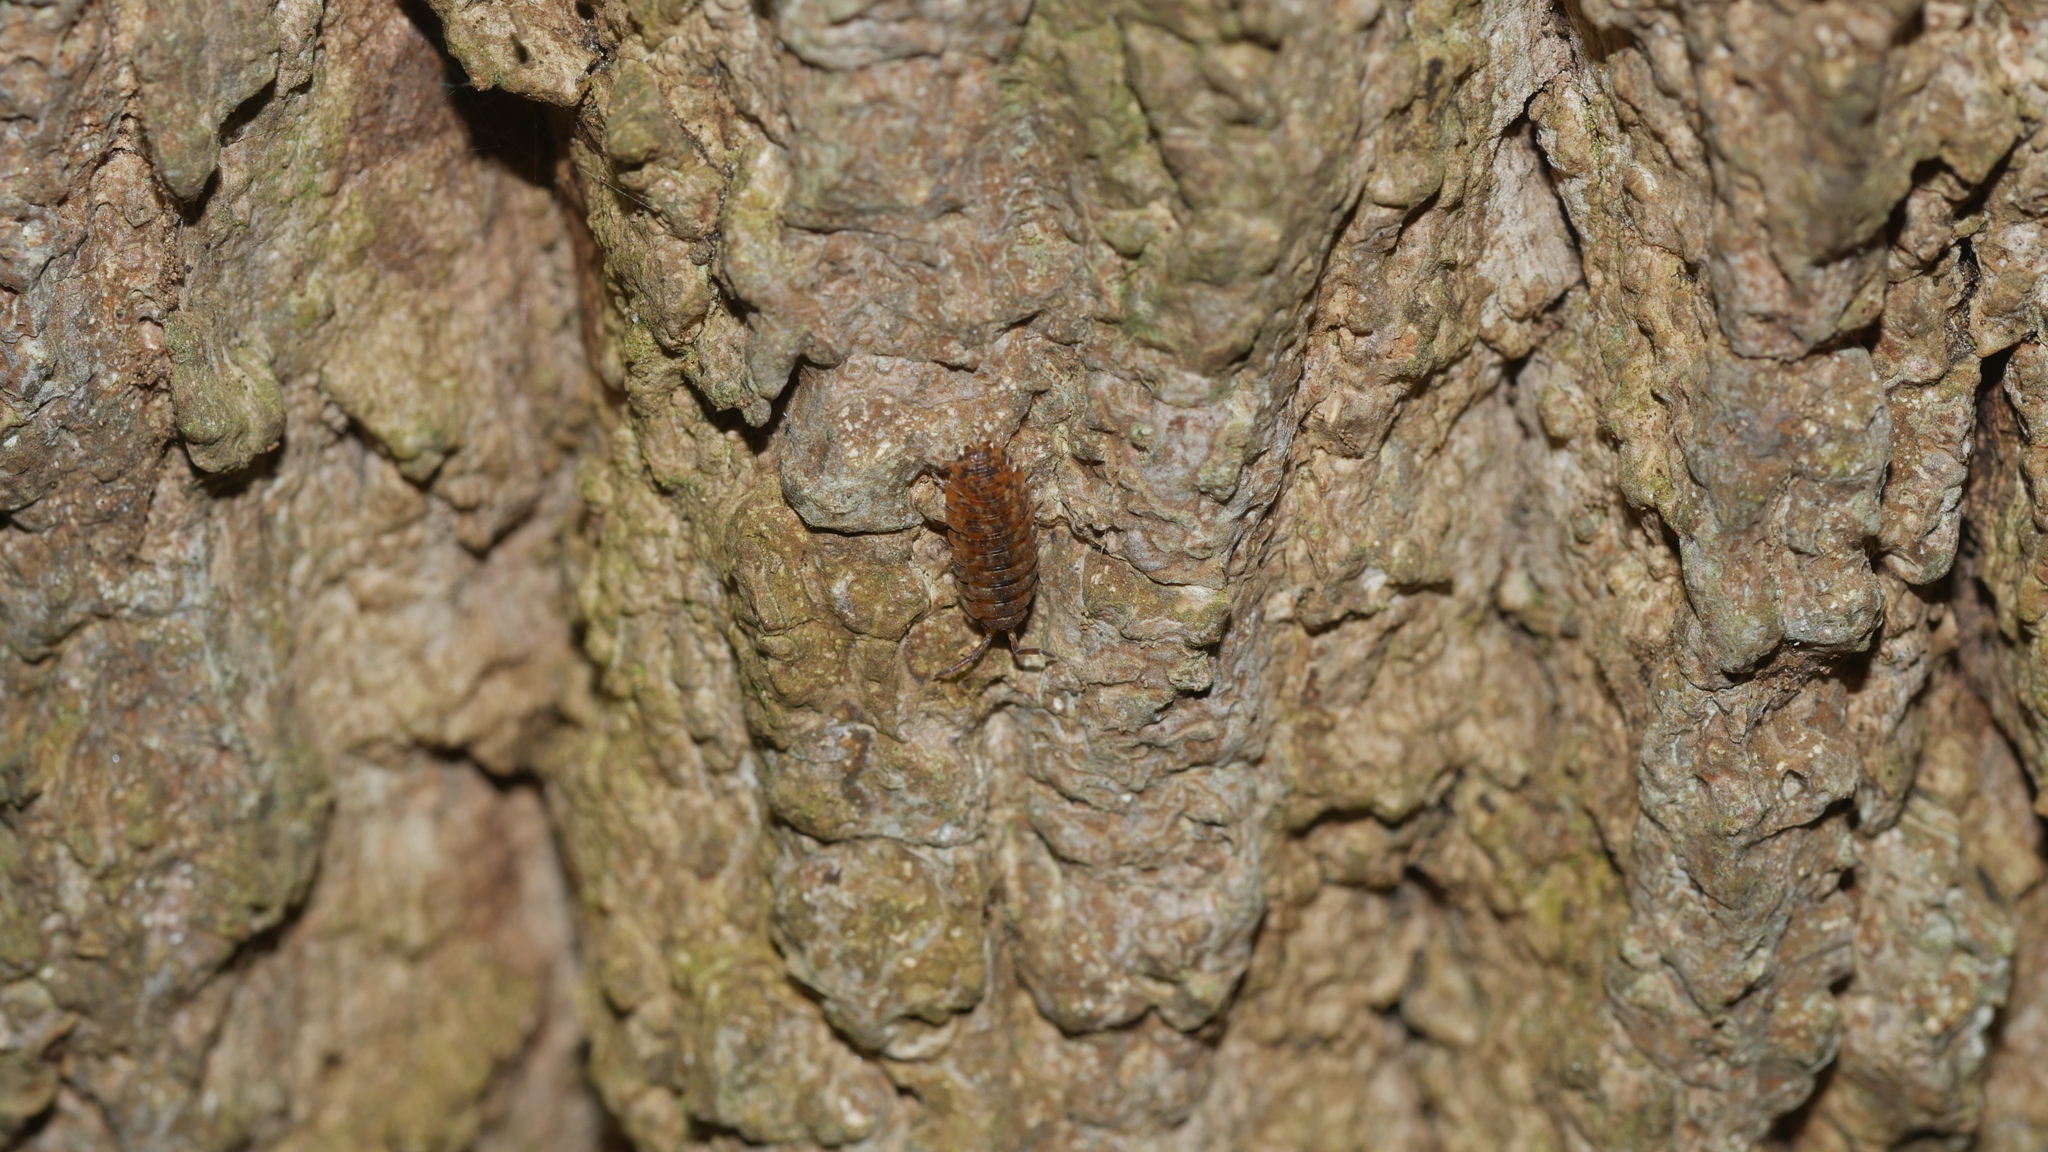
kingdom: Animalia
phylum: Arthropoda
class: Malacostraca
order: Isopoda
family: Porcellionidae
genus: Porcellio
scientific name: Porcellio scaber
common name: Common rough woodlouse
